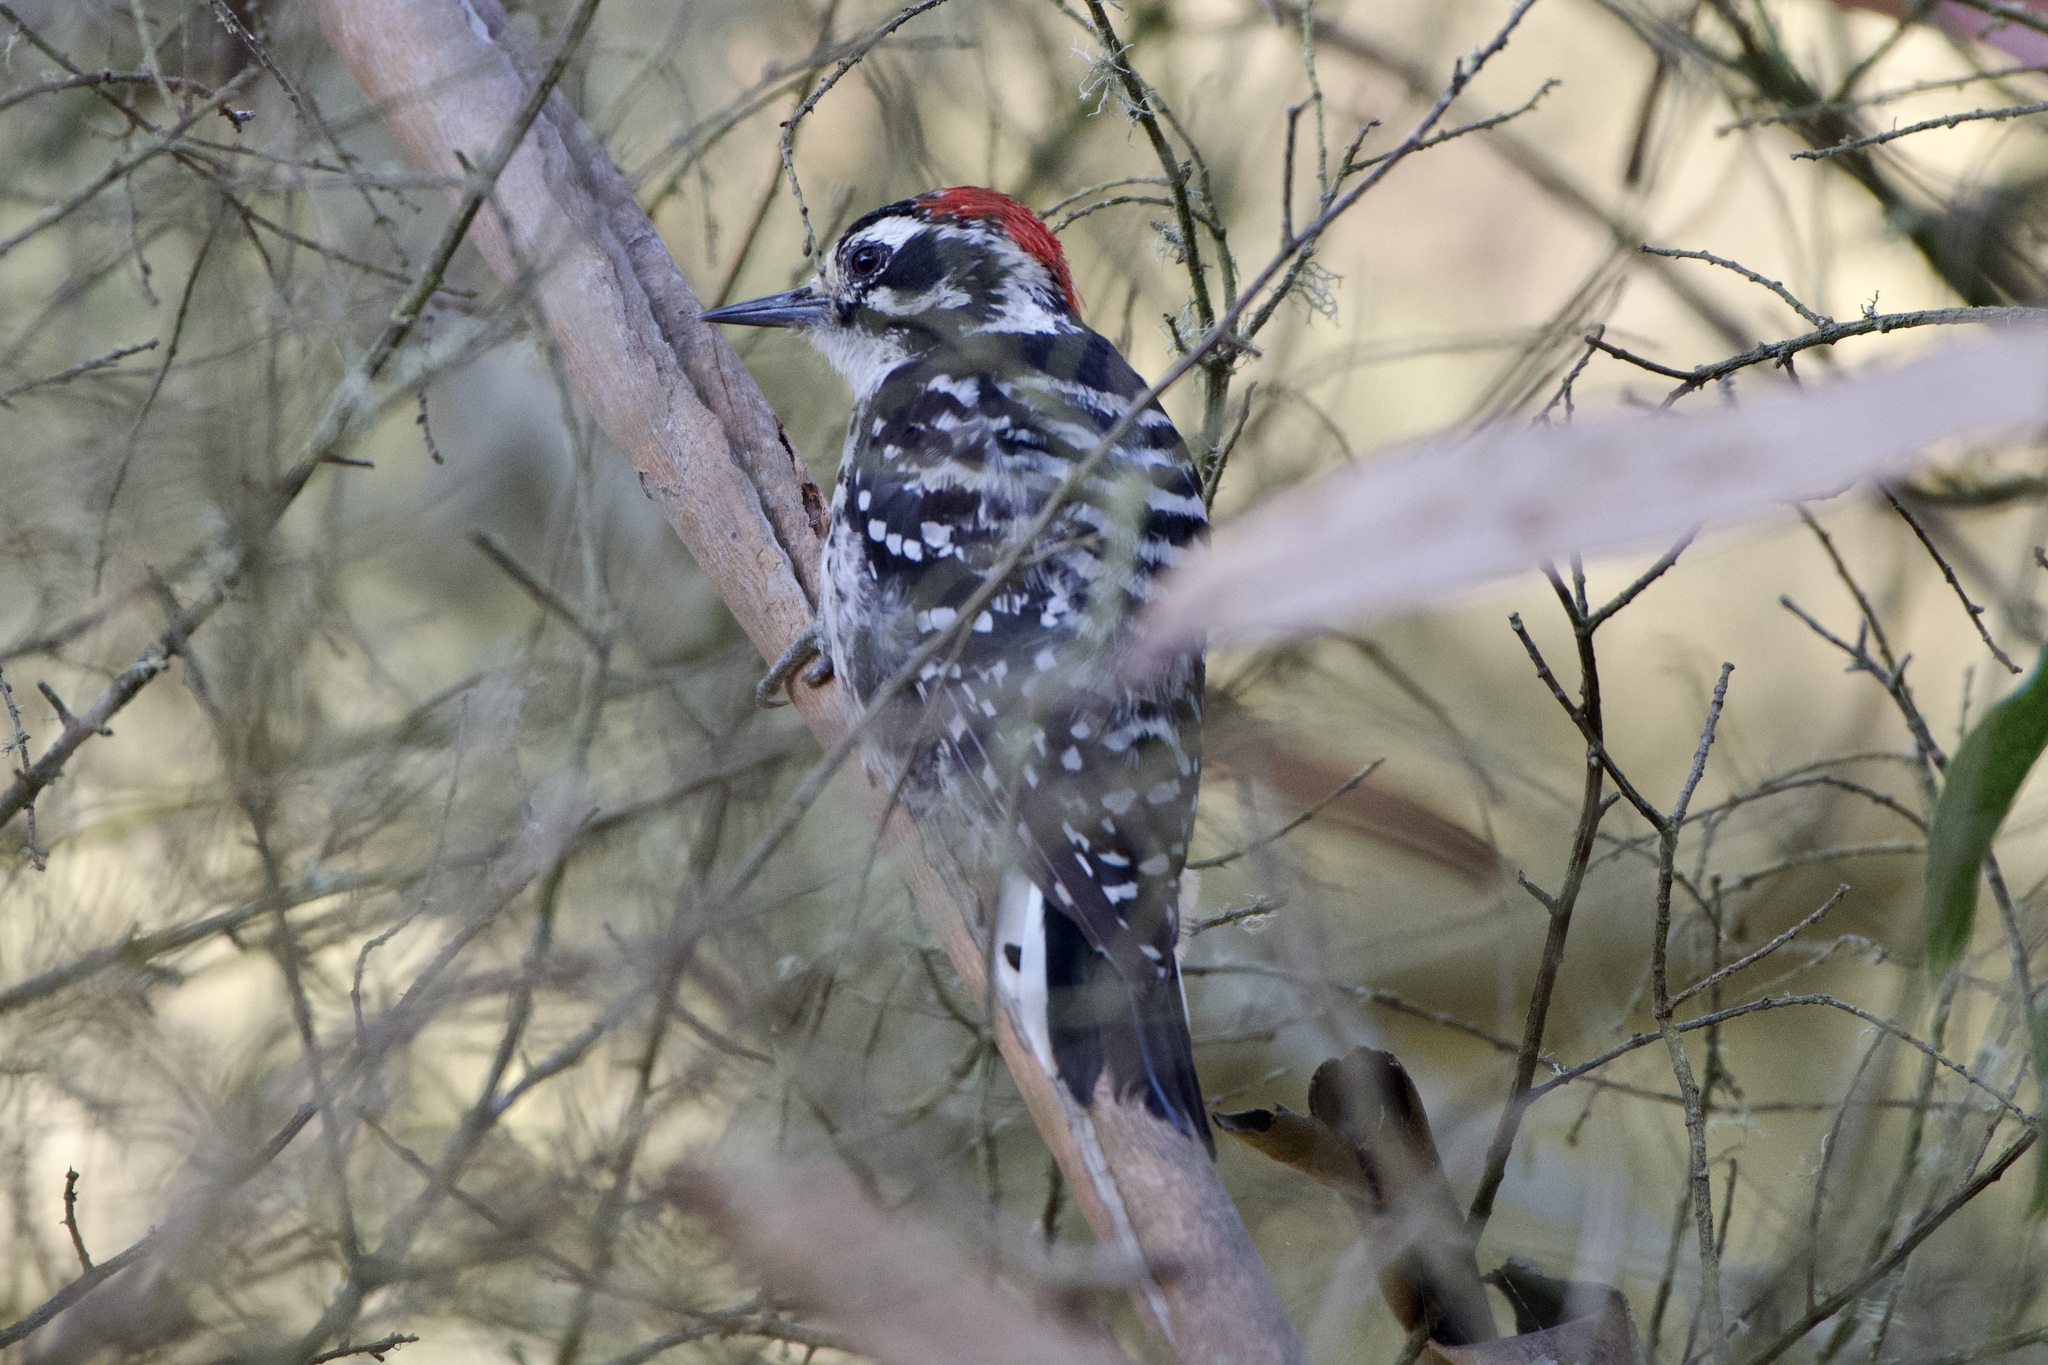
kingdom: Animalia
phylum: Chordata
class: Aves
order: Piciformes
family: Picidae
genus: Dryobates
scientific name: Dryobates nuttallii
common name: Nuttall's woodpecker
